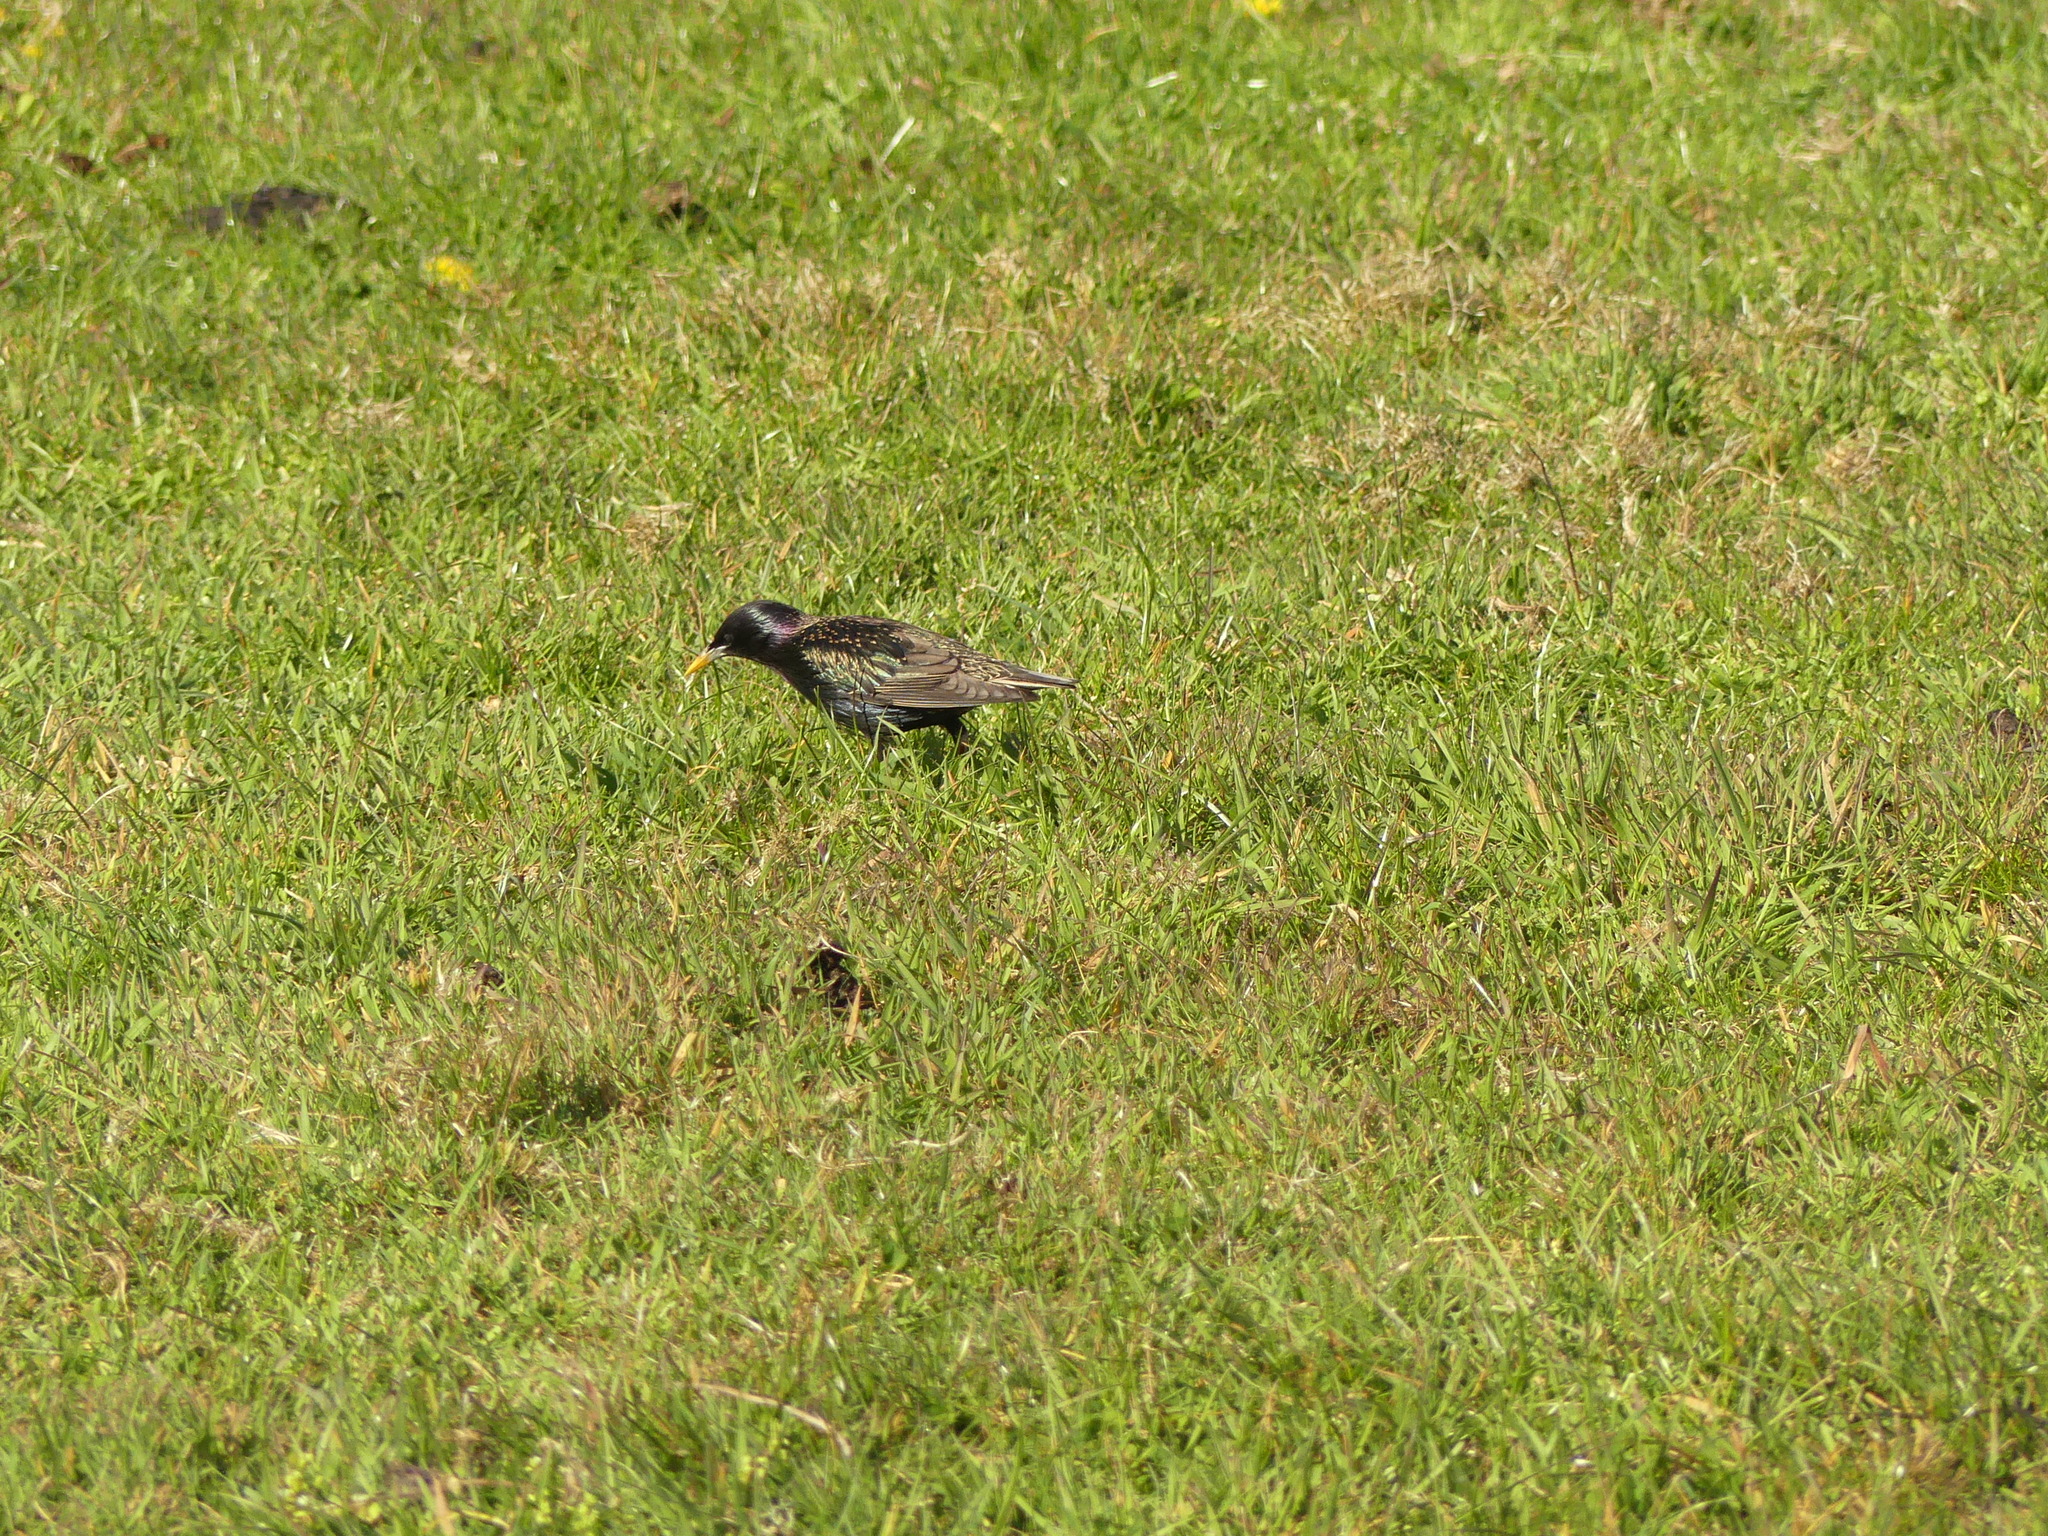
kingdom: Animalia
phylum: Chordata
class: Aves
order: Passeriformes
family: Sturnidae
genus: Sturnus
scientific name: Sturnus vulgaris
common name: Common starling
